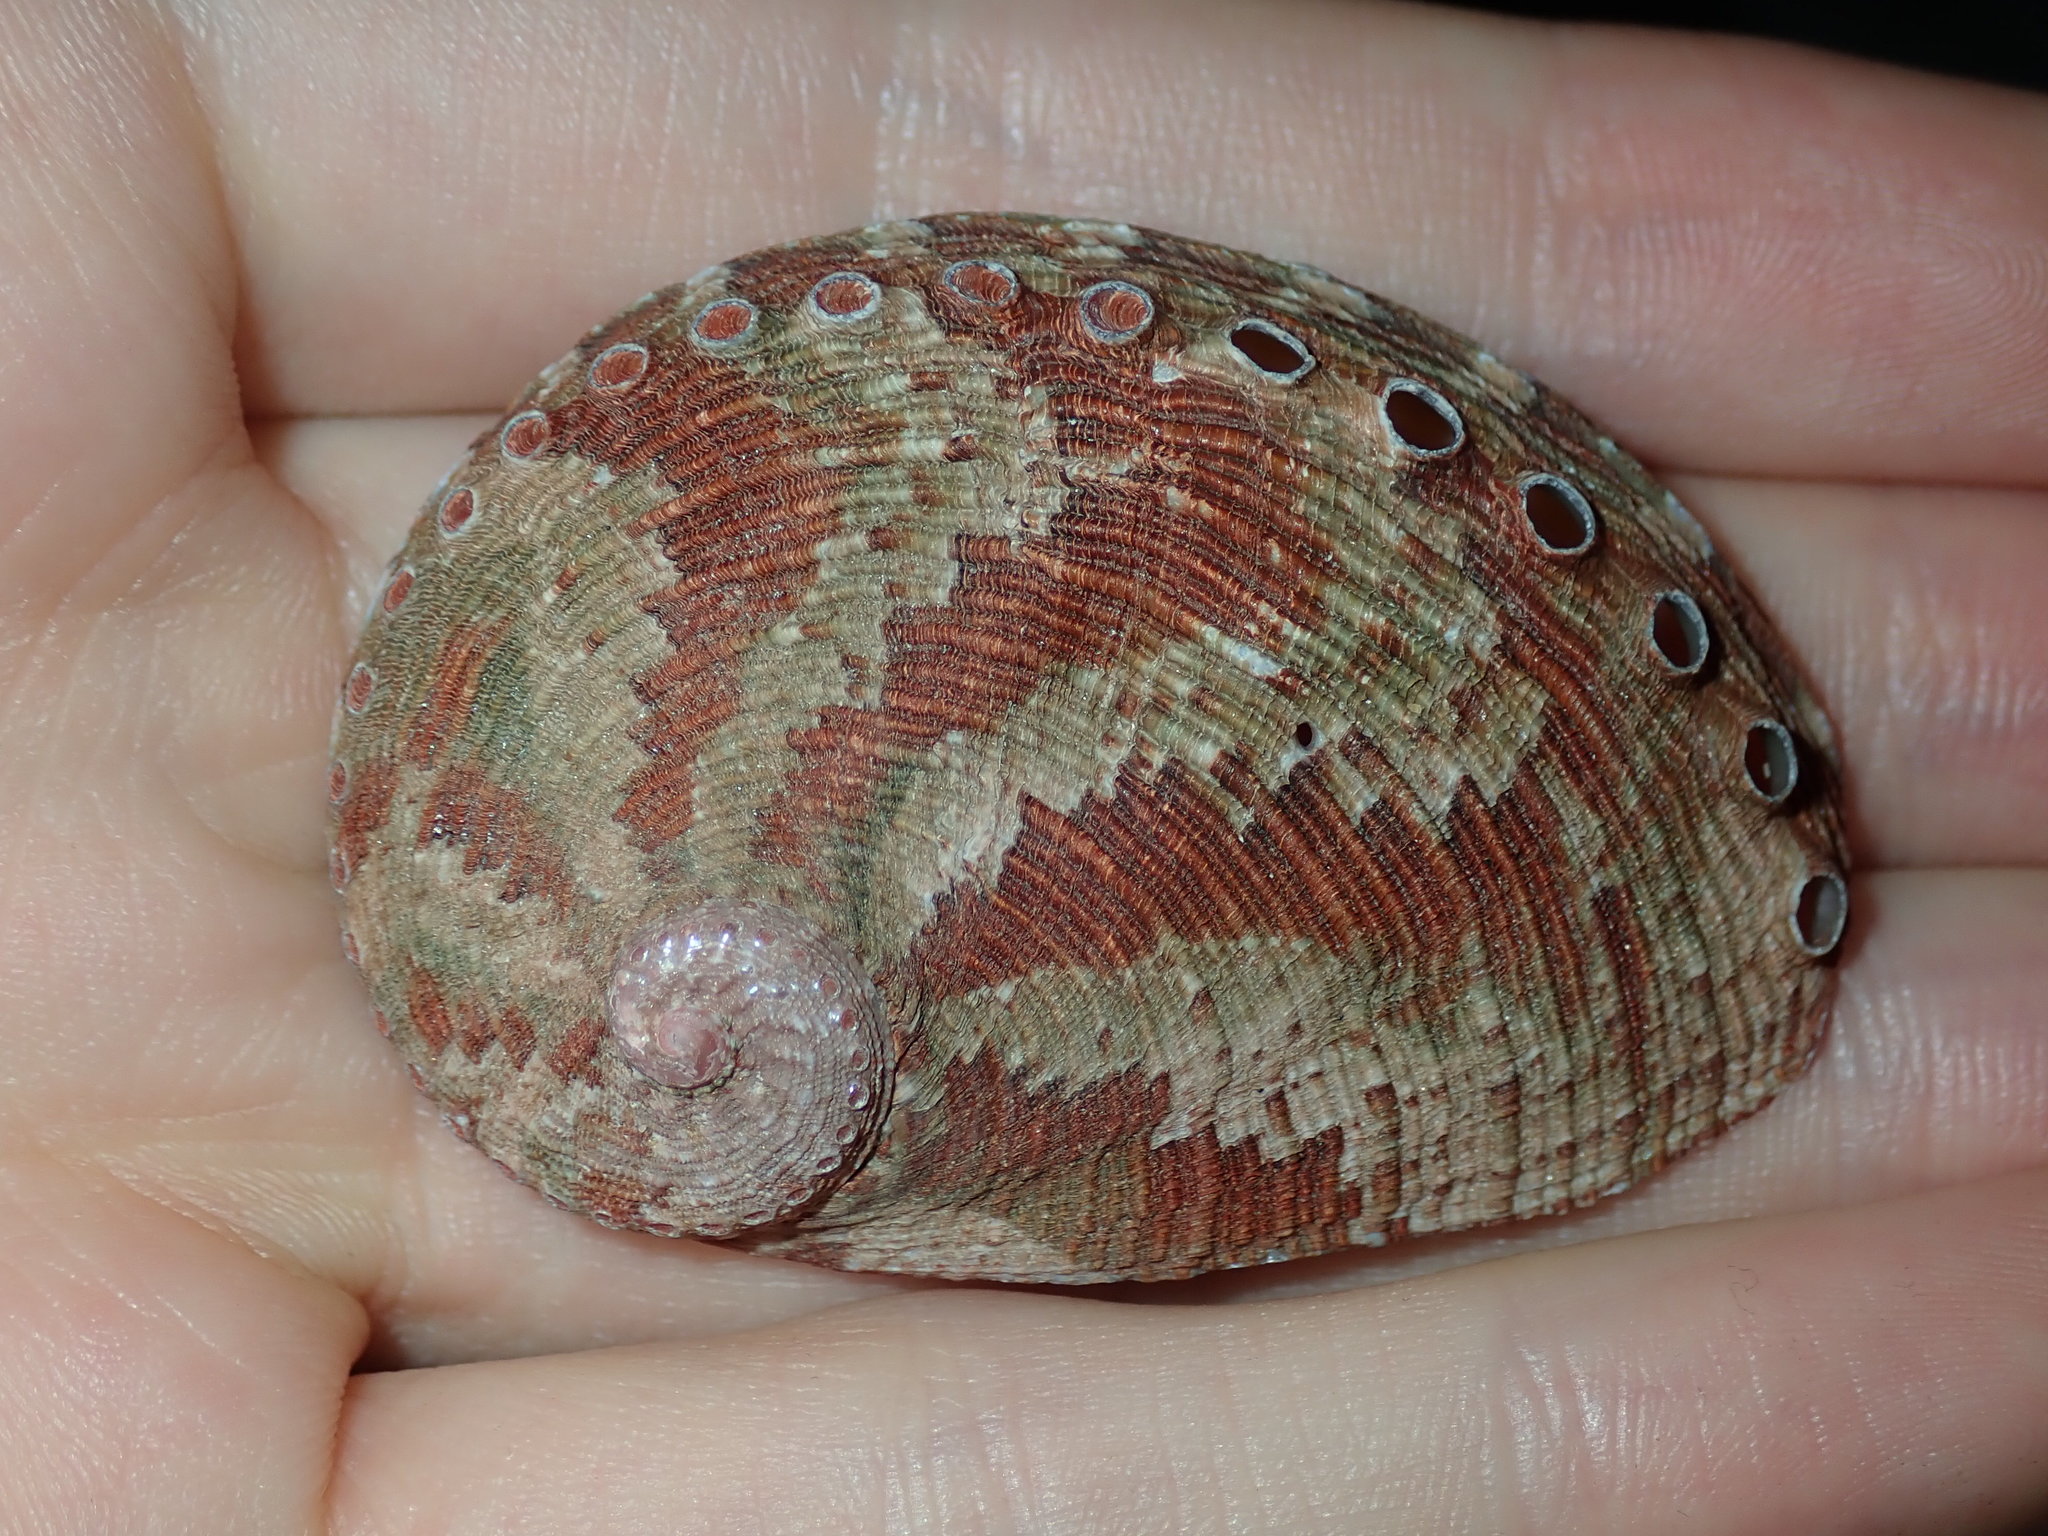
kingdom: Animalia
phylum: Mollusca
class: Gastropoda
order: Lepetellida
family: Haliotidae
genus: Haliotis
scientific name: Haliotis coccoradiata
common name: Reddish-rayed abalone
